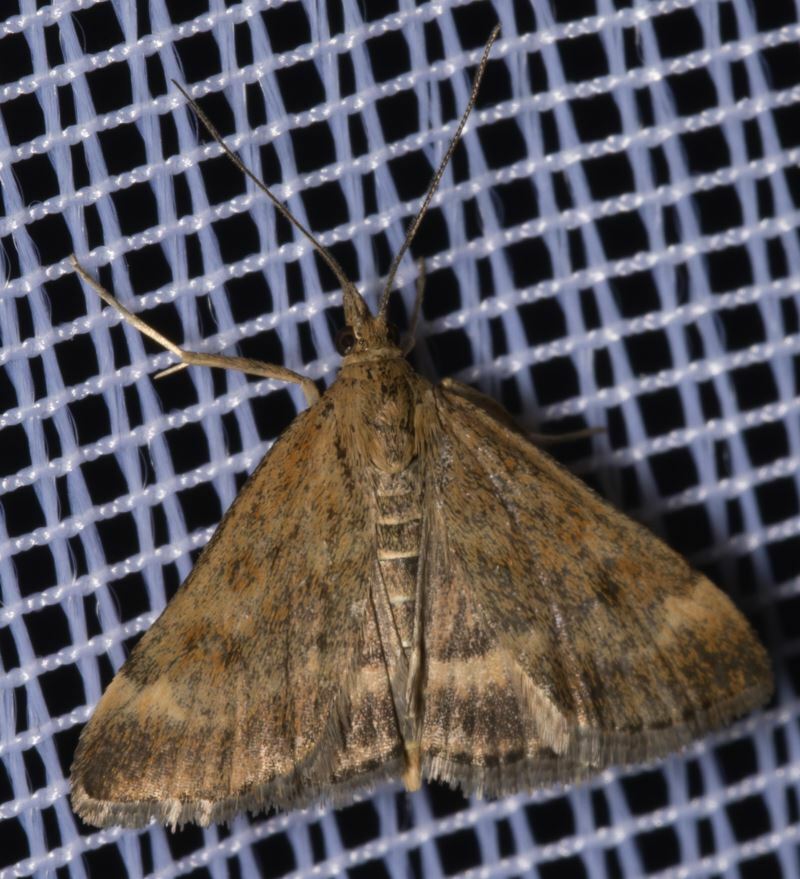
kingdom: Animalia
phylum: Arthropoda
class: Insecta
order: Lepidoptera
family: Crambidae
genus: Pyrausta
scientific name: Pyrausta despicata
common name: Straw-barred pearl
